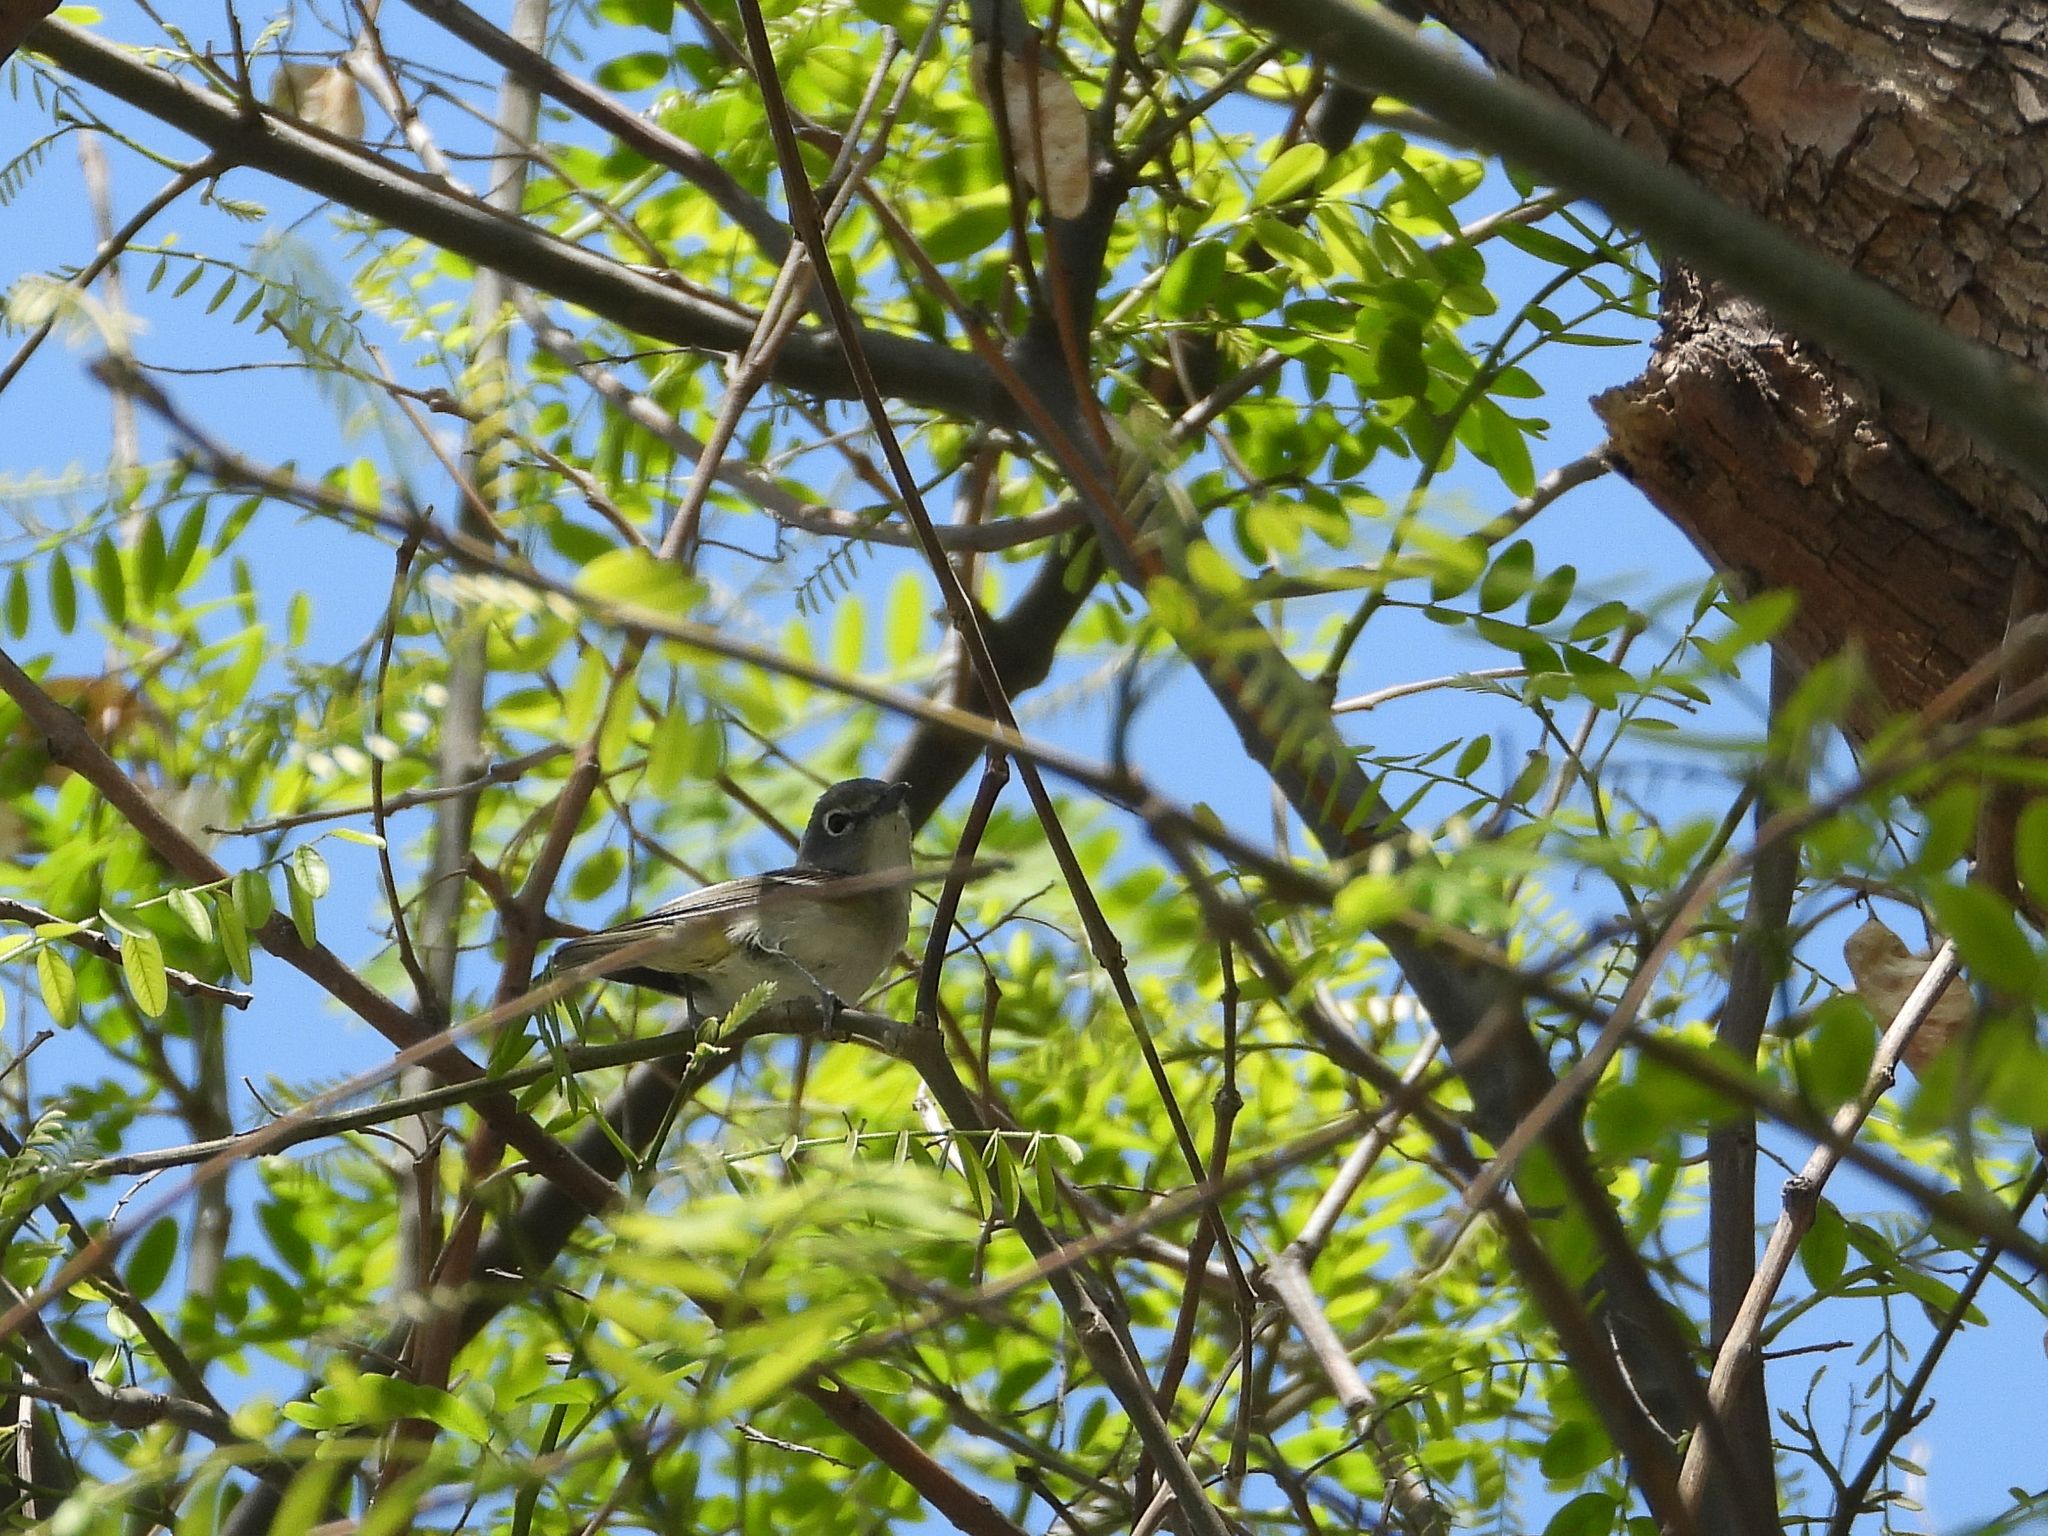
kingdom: Animalia
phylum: Chordata
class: Aves
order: Passeriformes
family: Vireonidae
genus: Vireo
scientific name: Vireo cassinii
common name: Cassin's vireo
